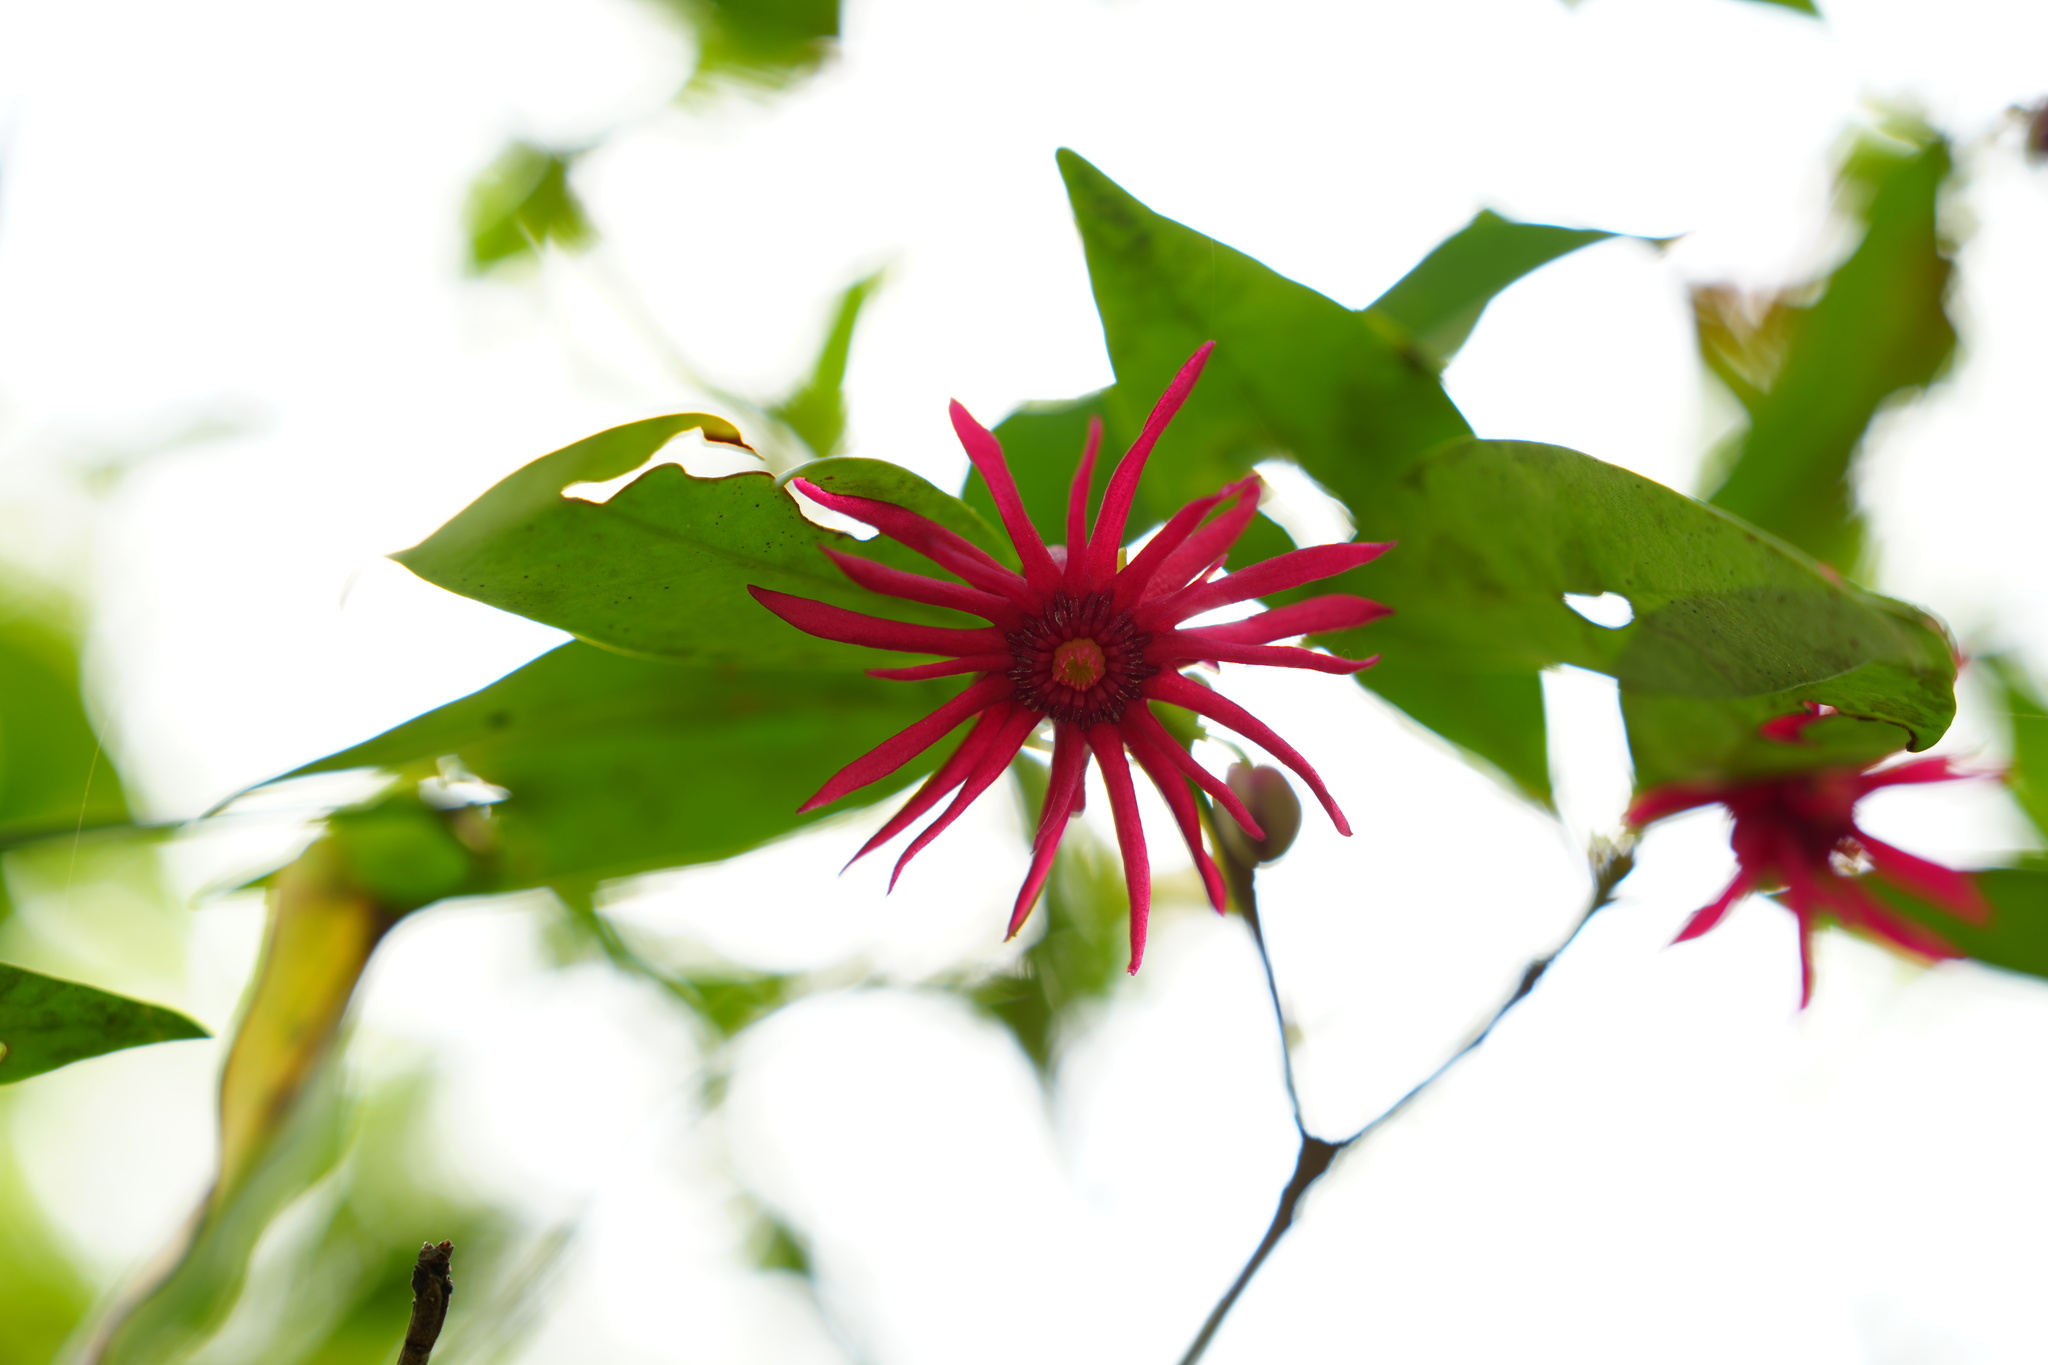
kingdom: Plantae
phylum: Tracheophyta
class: Magnoliopsida
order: Austrobaileyales
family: Schisandraceae
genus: Illicium
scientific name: Illicium floridanum
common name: Florida anisetree
